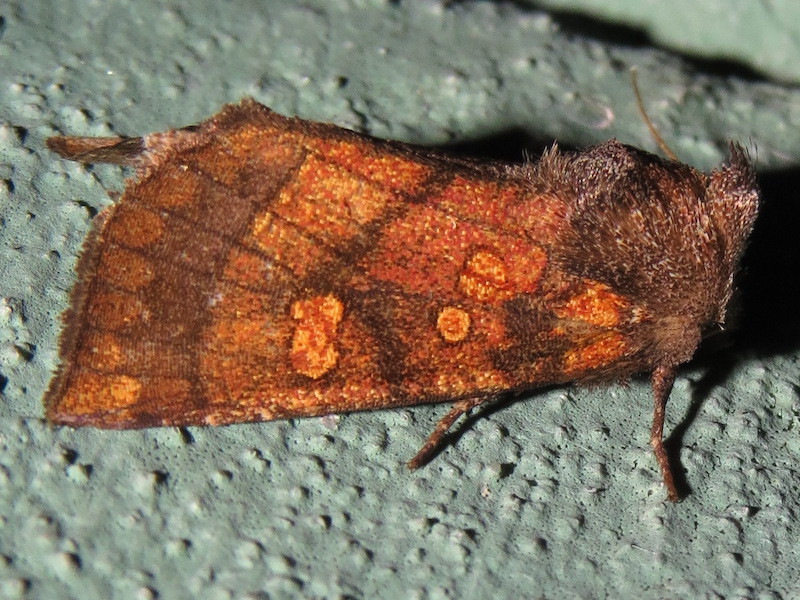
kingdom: Animalia
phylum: Arthropoda
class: Insecta
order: Lepidoptera
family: Noctuidae
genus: Papaipema
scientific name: Papaipema impecuniosa
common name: Aster borer moth
